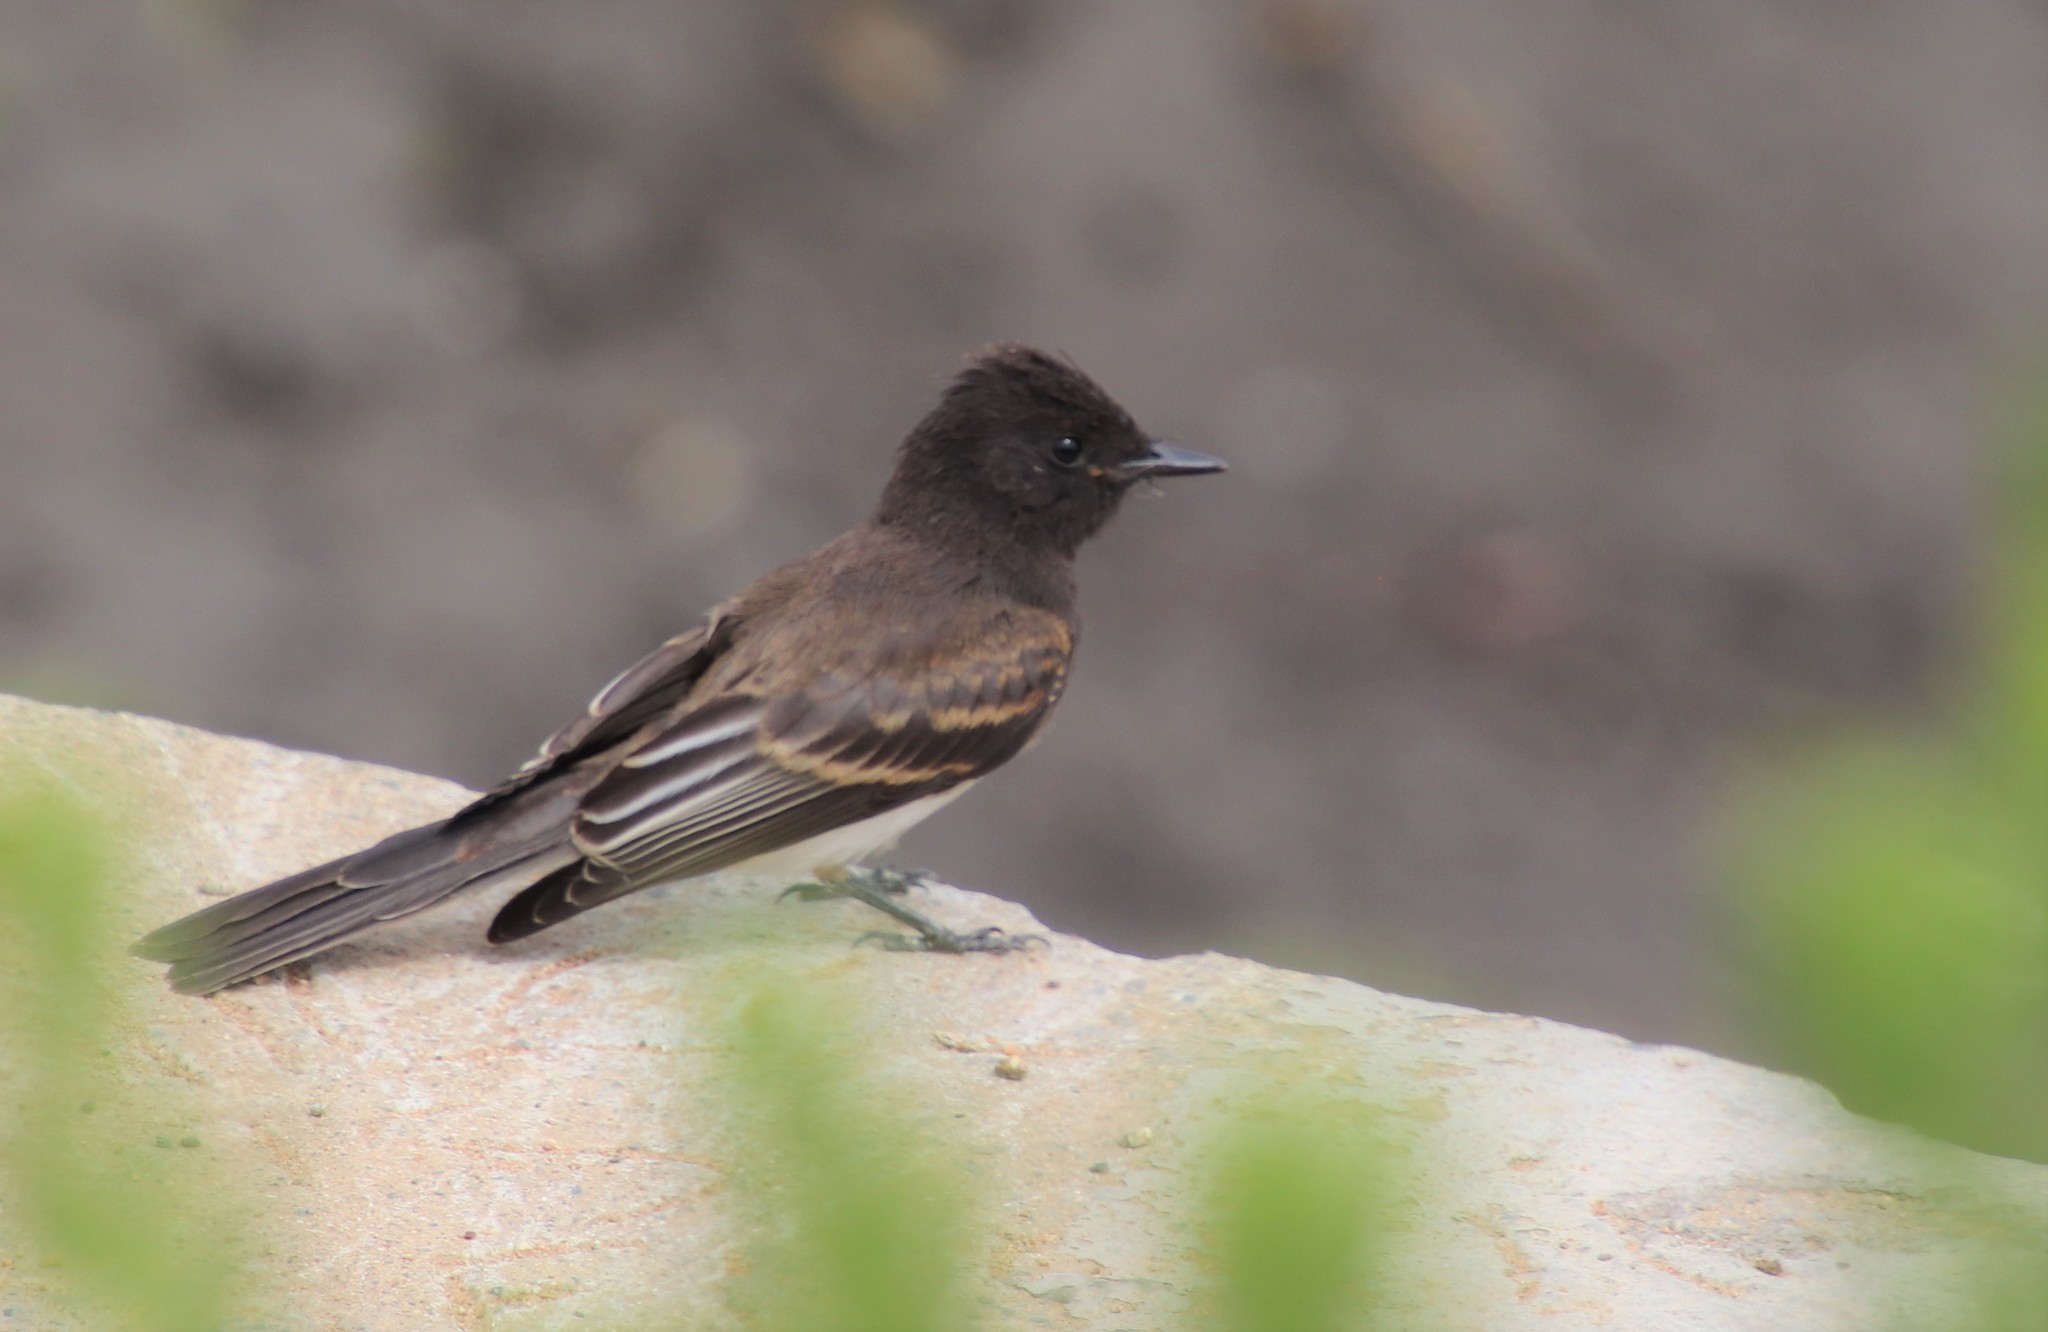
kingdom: Animalia
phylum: Chordata
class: Aves
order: Passeriformes
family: Tyrannidae
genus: Sayornis
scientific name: Sayornis nigricans
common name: Black phoebe
